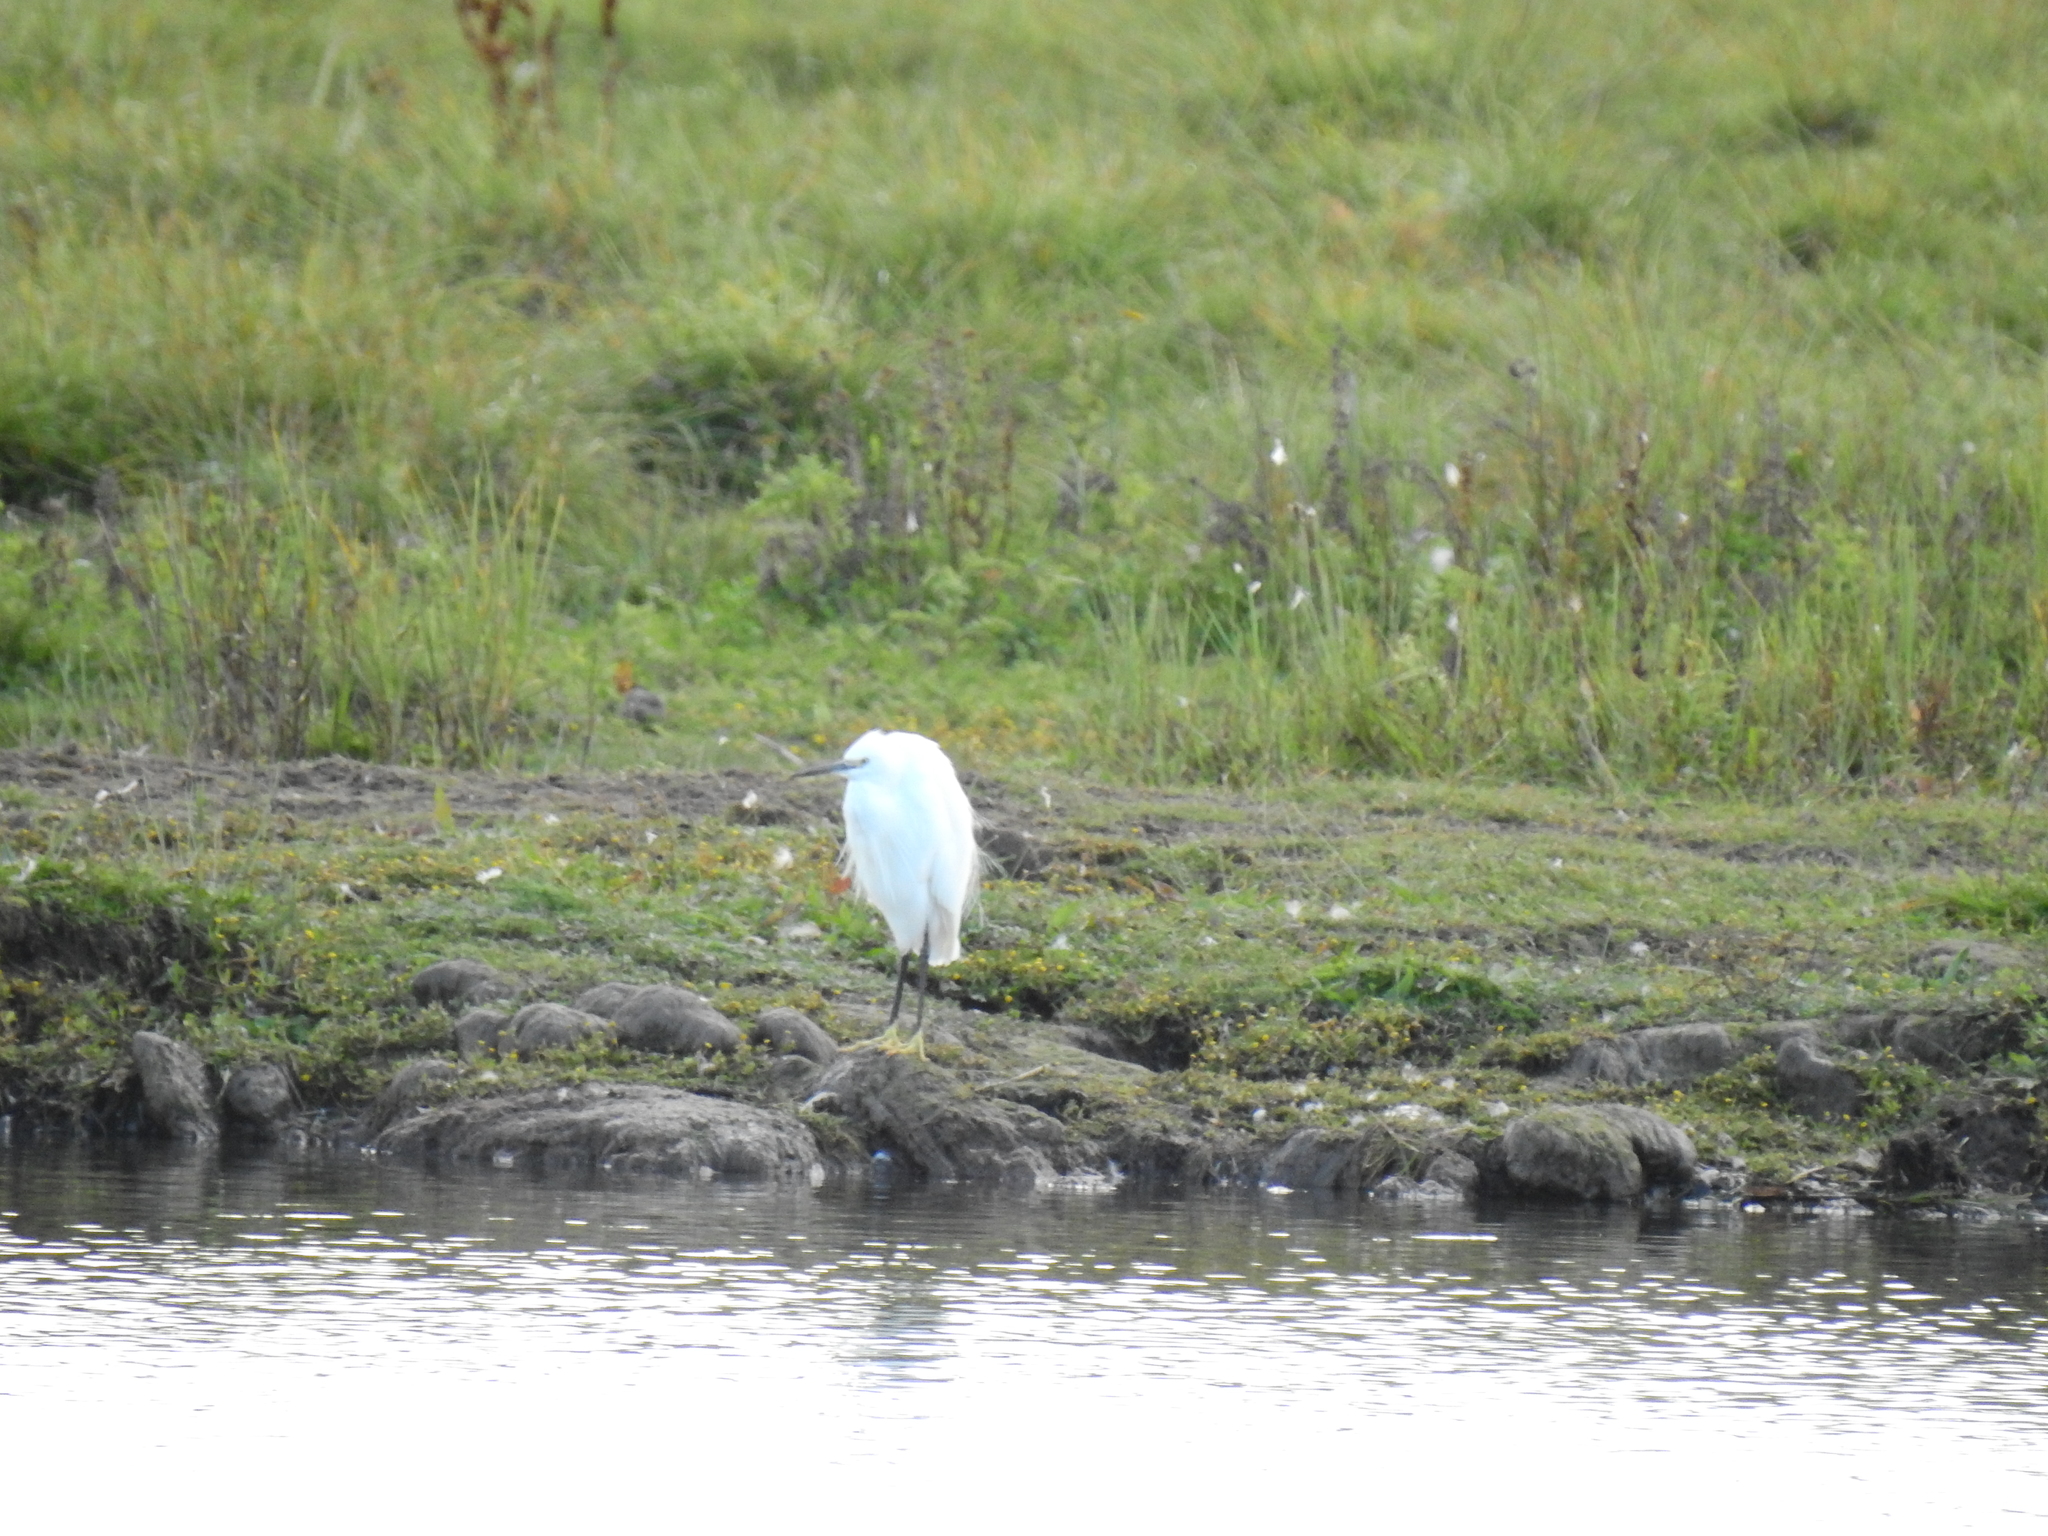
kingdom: Animalia
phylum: Chordata
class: Aves
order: Pelecaniformes
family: Ardeidae
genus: Egretta
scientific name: Egretta garzetta
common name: Little egret
